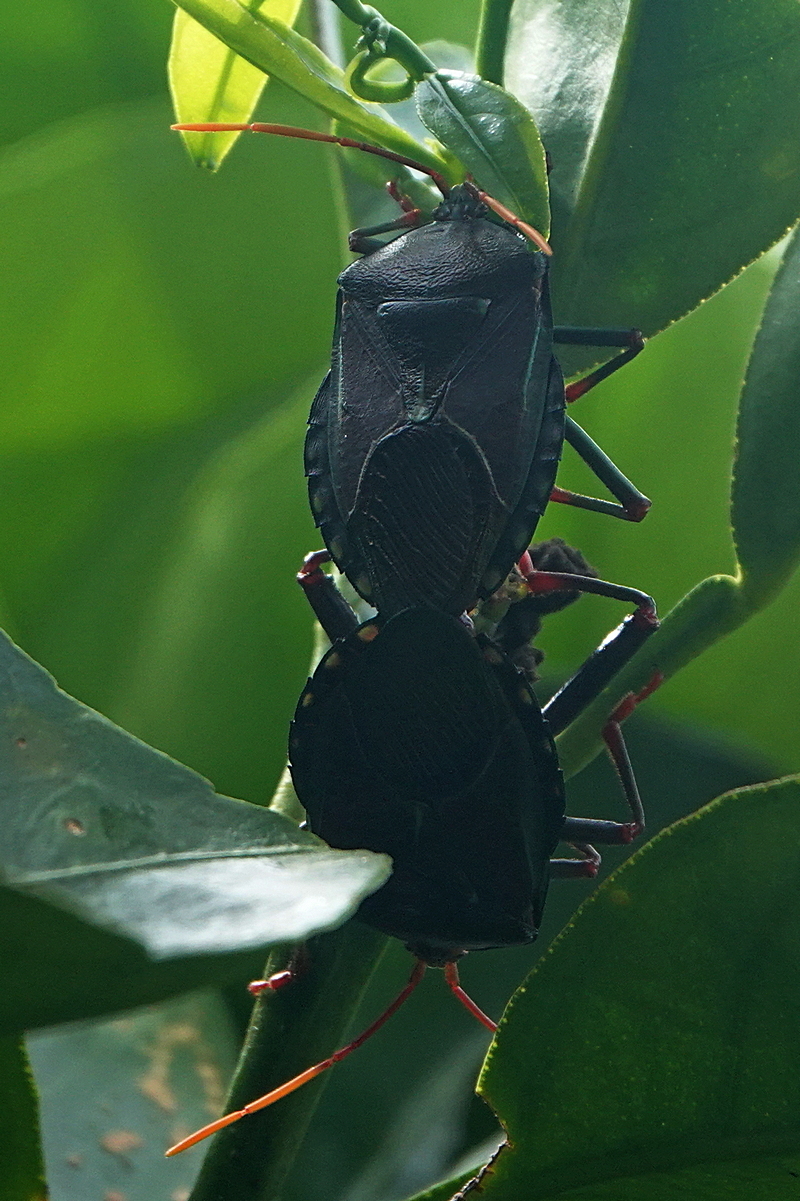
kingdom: Animalia
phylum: Arthropoda
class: Insecta
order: Hemiptera
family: Tessaratomidae
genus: Musgraveia
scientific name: Musgraveia sulciventris
